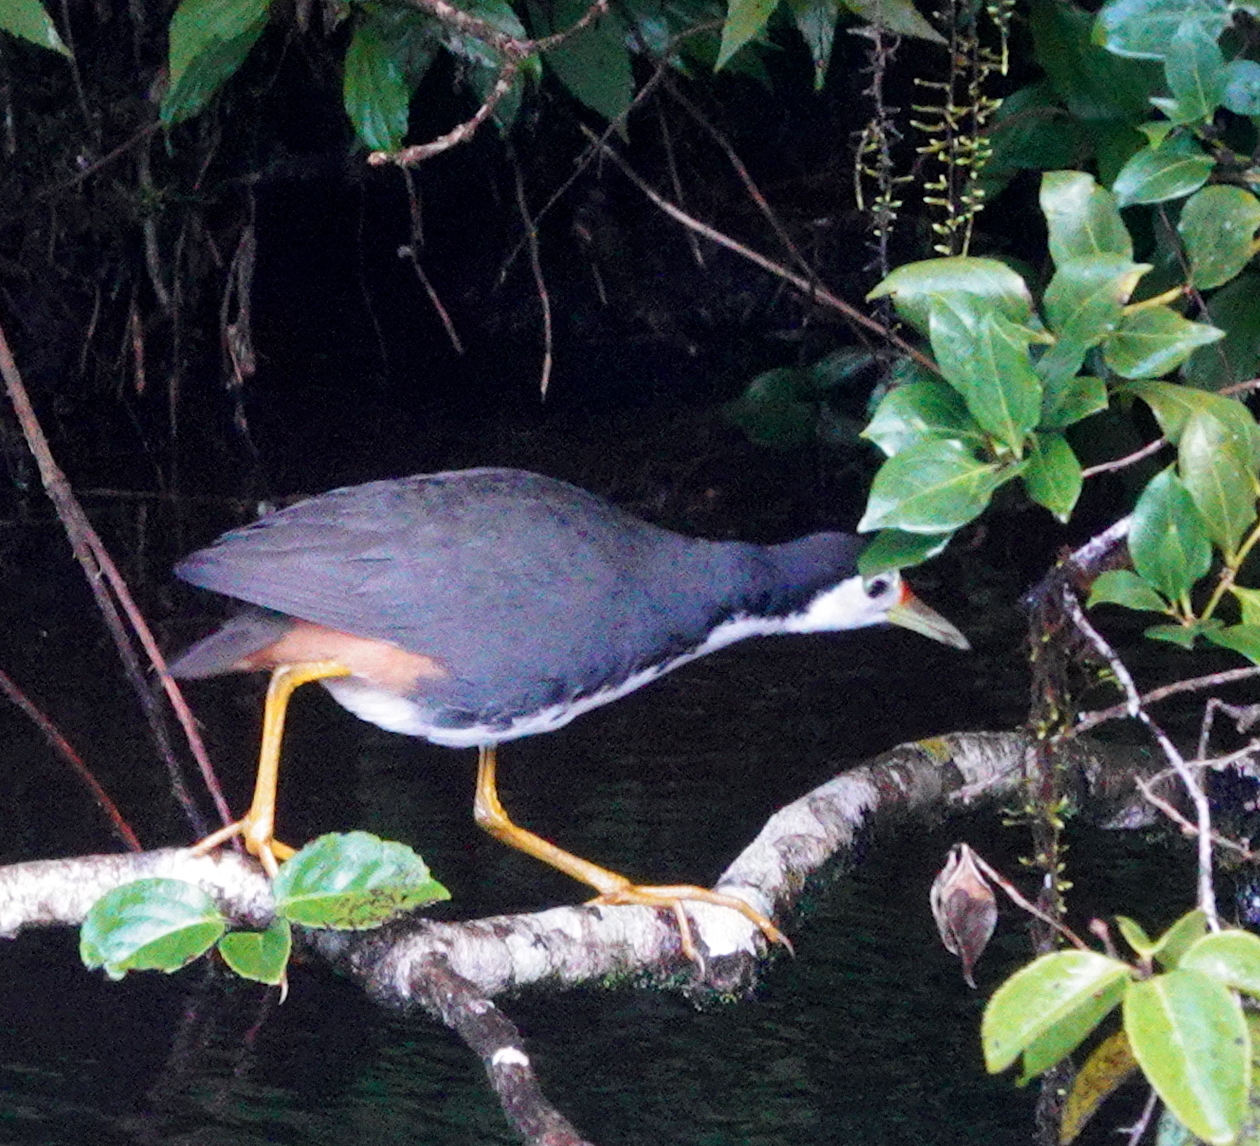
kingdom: Animalia
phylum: Chordata
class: Aves
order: Gruiformes
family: Rallidae
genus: Amaurornis
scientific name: Amaurornis phoenicurus
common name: White-breasted waterhen
